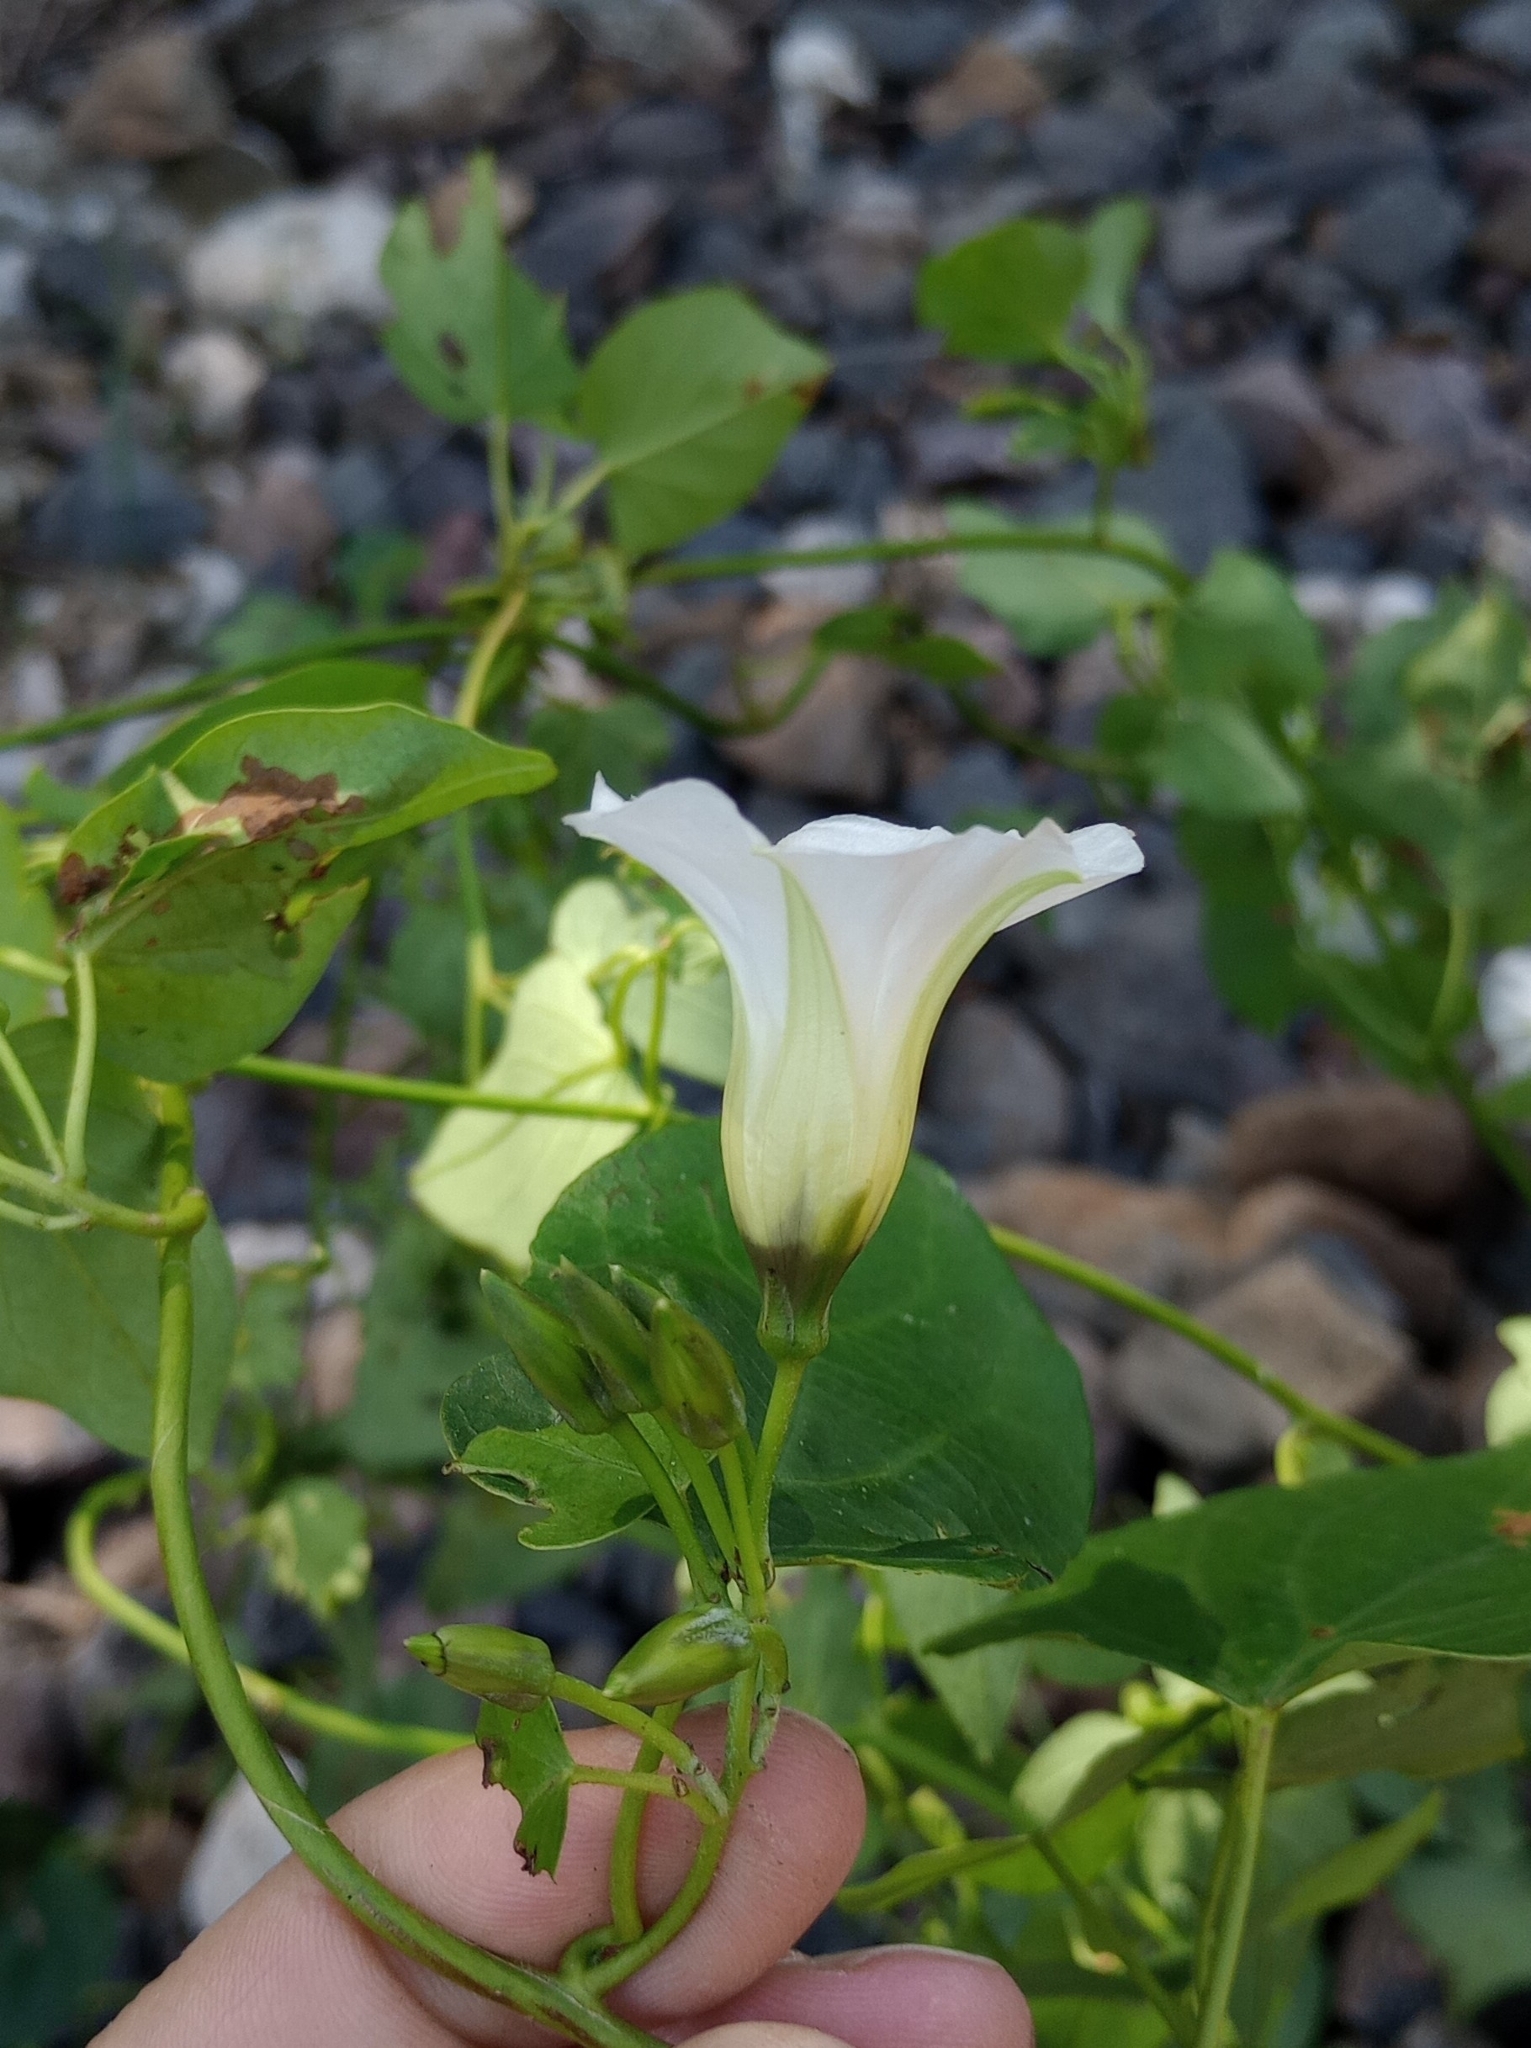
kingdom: Plantae
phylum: Tracheophyta
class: Magnoliopsida
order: Solanales
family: Convolvulaceae
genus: Ipomoea
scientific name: Ipomoea corymbosa
